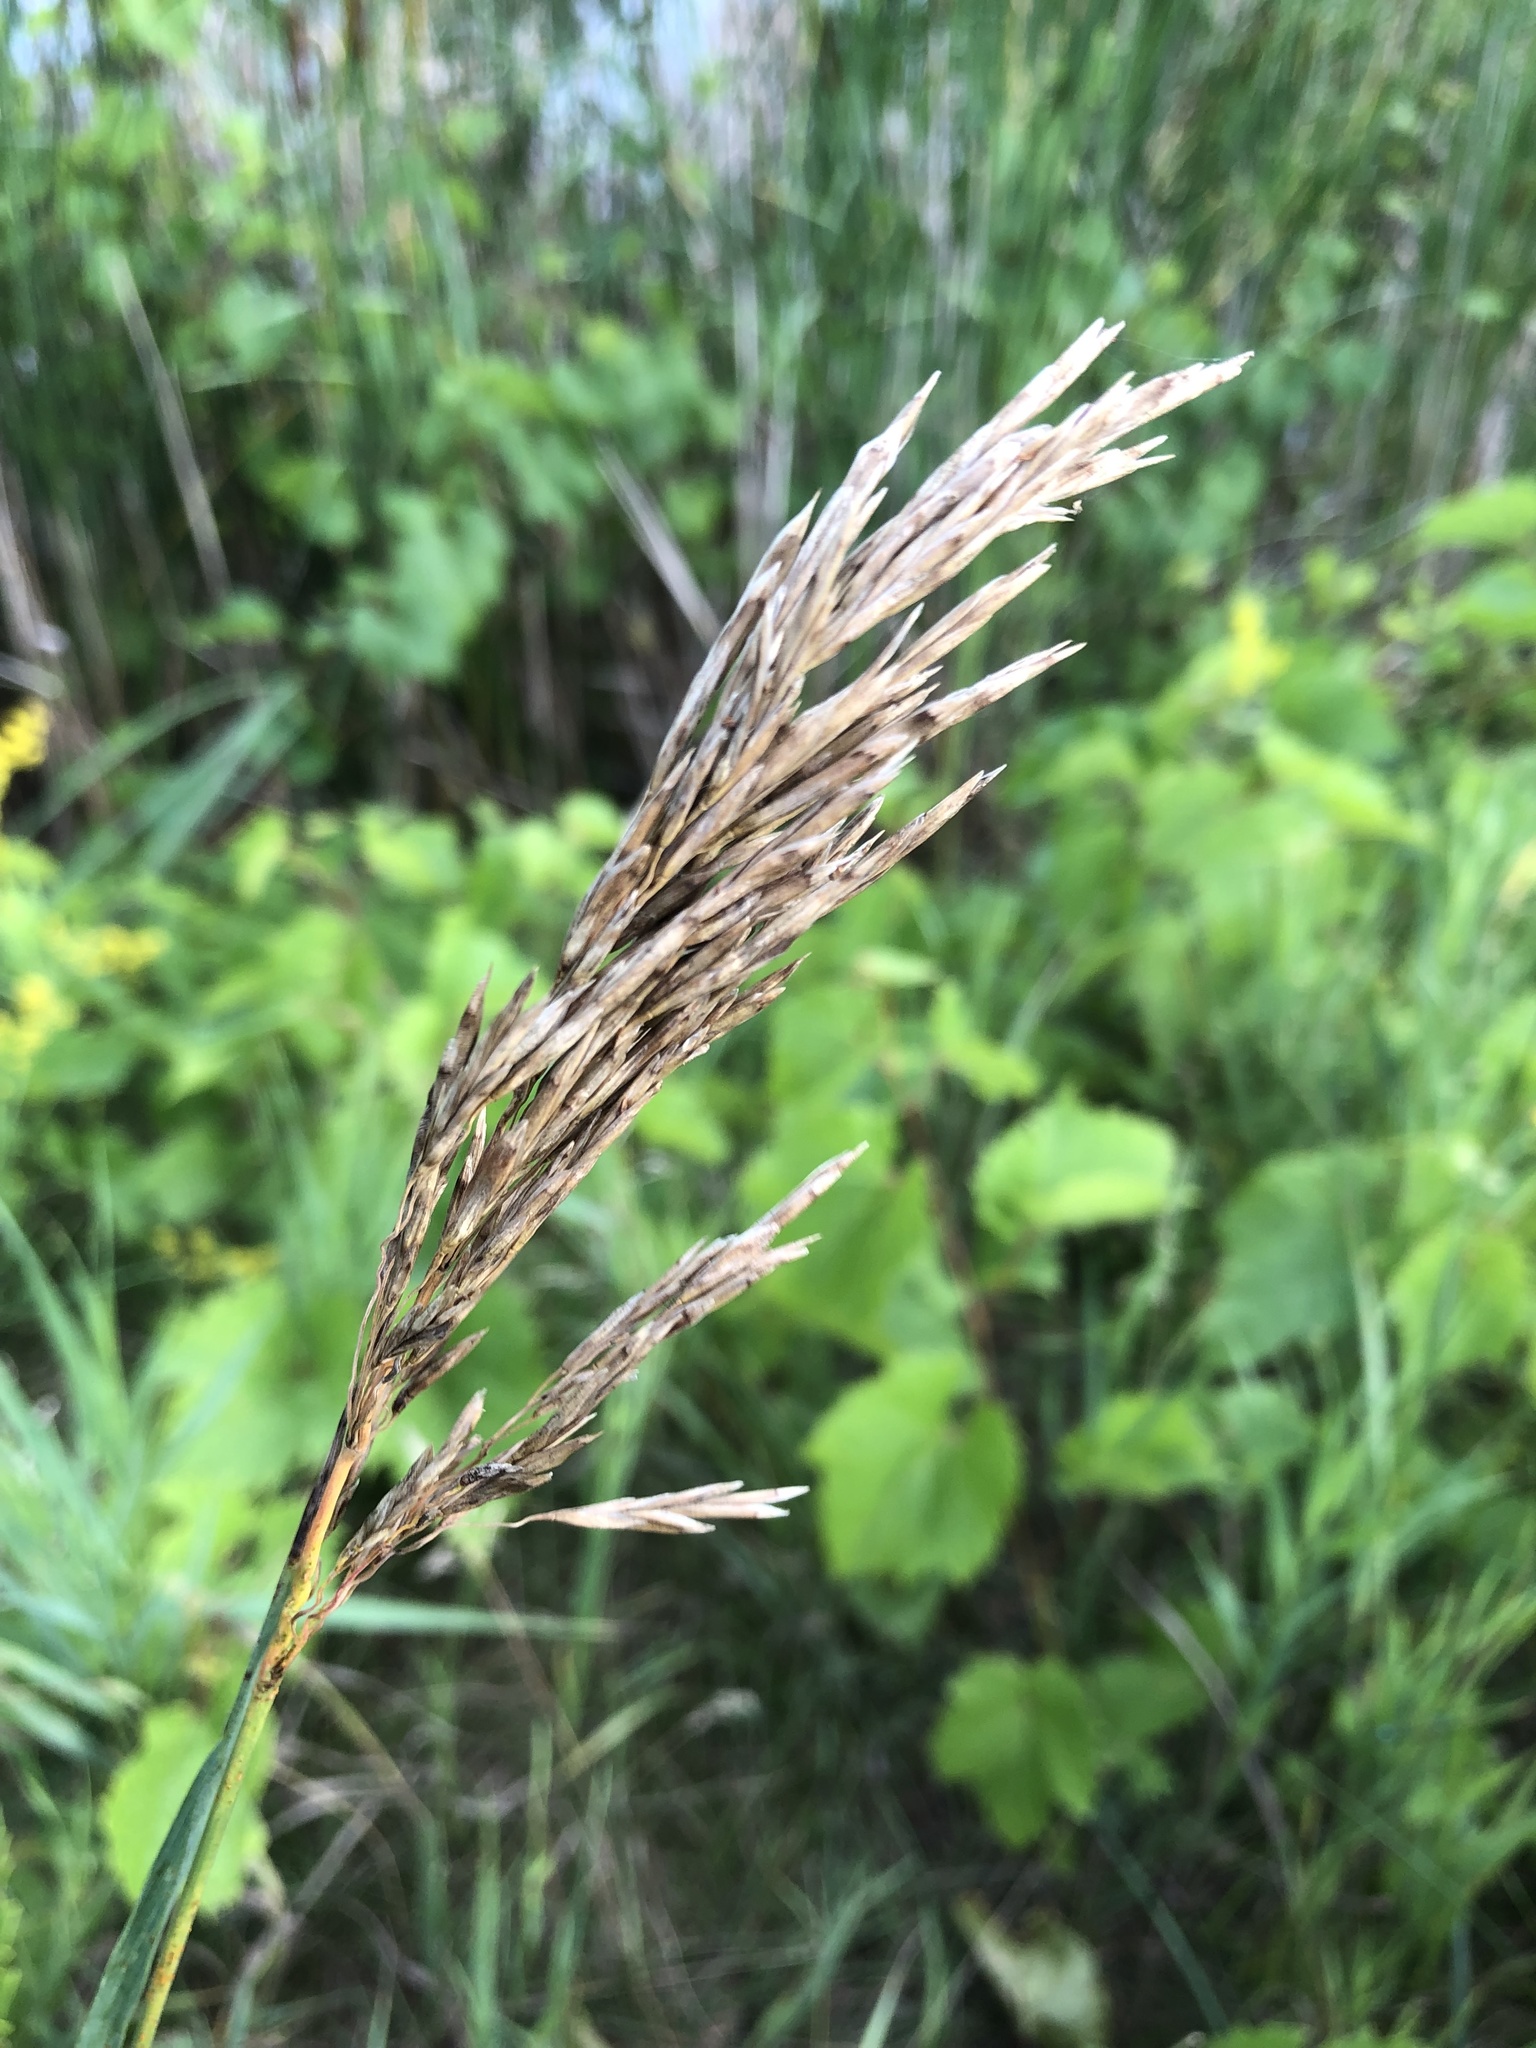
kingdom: Plantae
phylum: Tracheophyta
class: Liliopsida
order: Poales
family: Poaceae
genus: Bromus
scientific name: Bromus inermis
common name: Smooth brome
